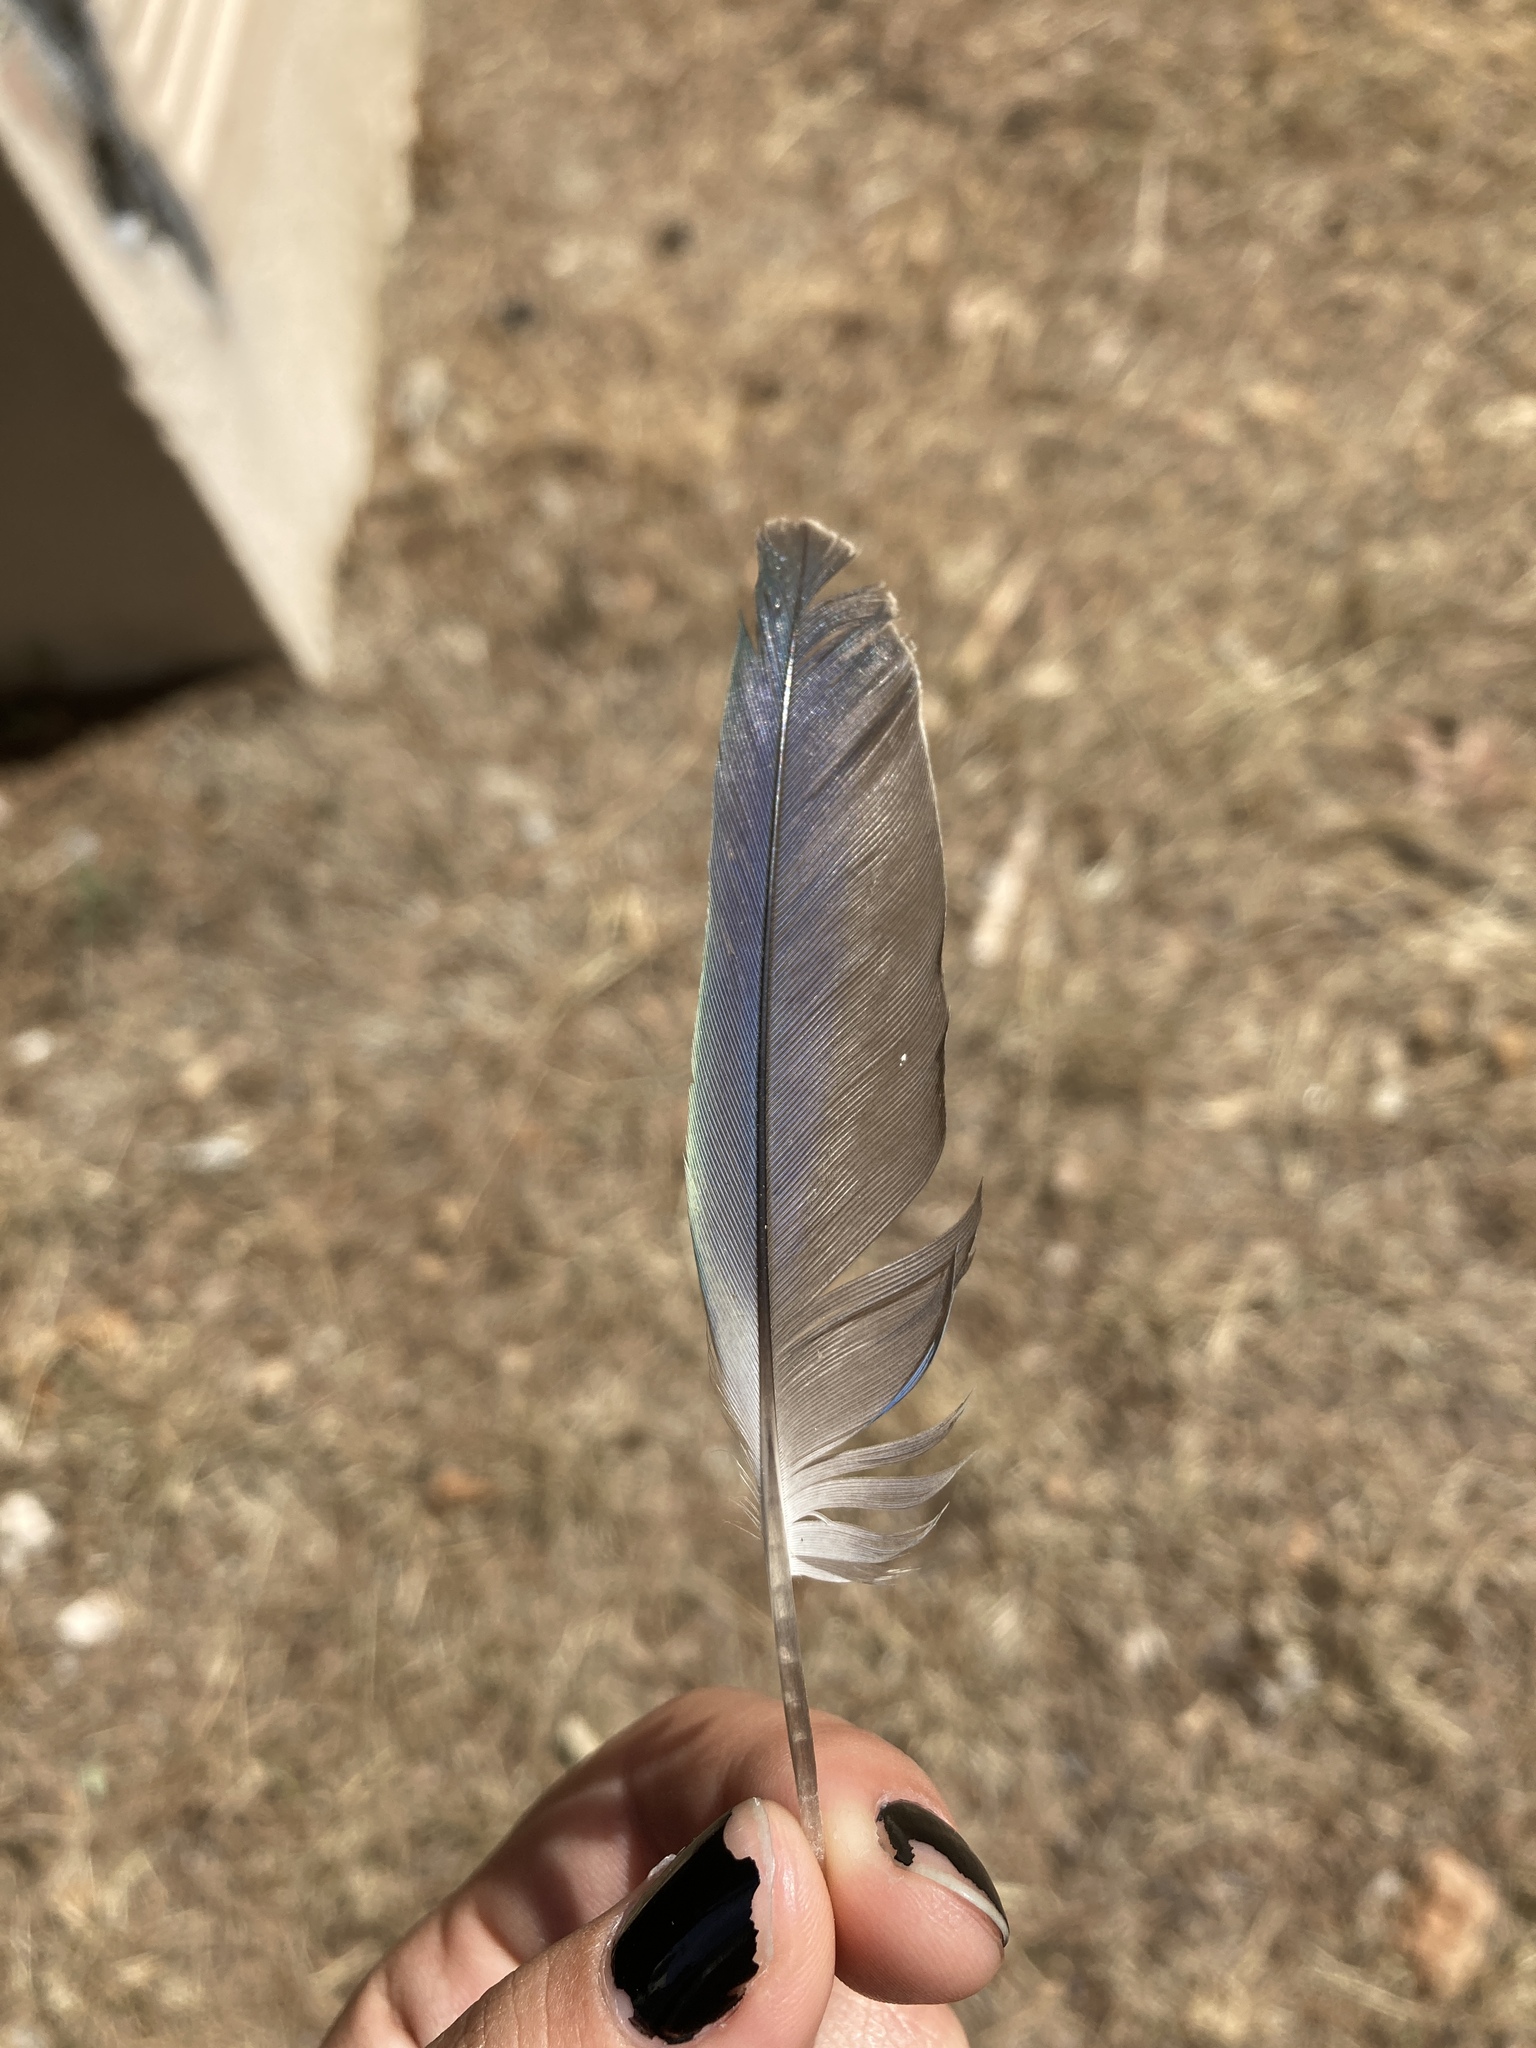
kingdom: Animalia
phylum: Chordata
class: Aves
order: Psittaciformes
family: Psittacidae
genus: Myiopsitta
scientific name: Myiopsitta monachus
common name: Monk parakeet
